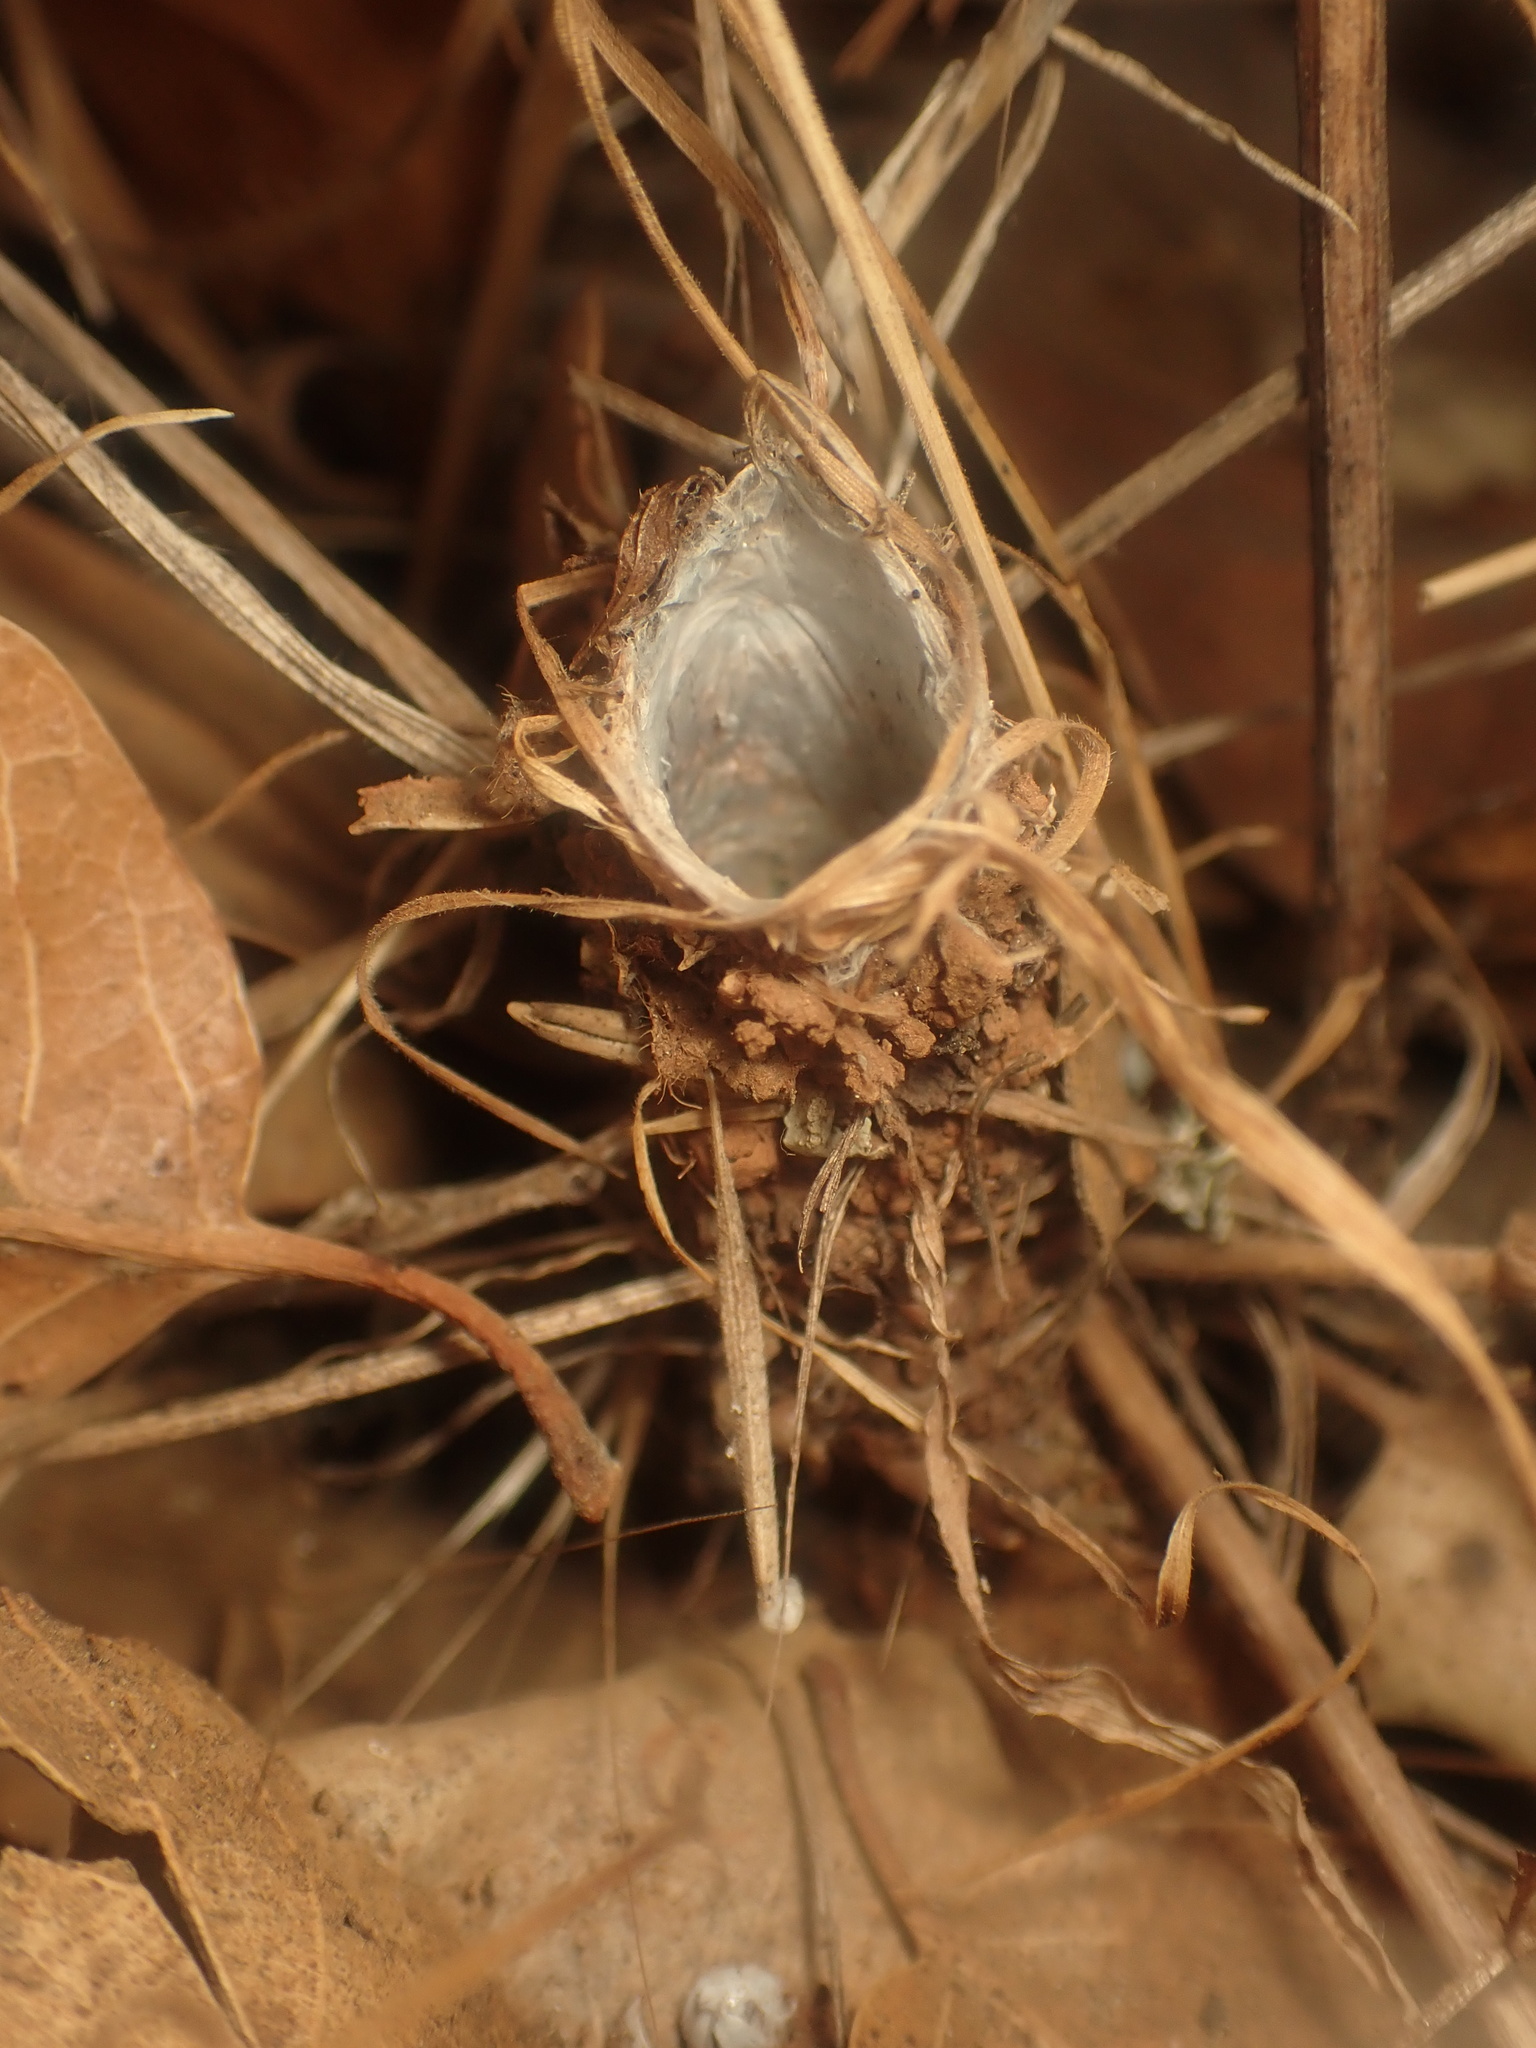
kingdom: Animalia
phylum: Arthropoda
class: Arachnida
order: Araneae
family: Antrodiaetidae
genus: Atypoides
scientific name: Atypoides riversi
